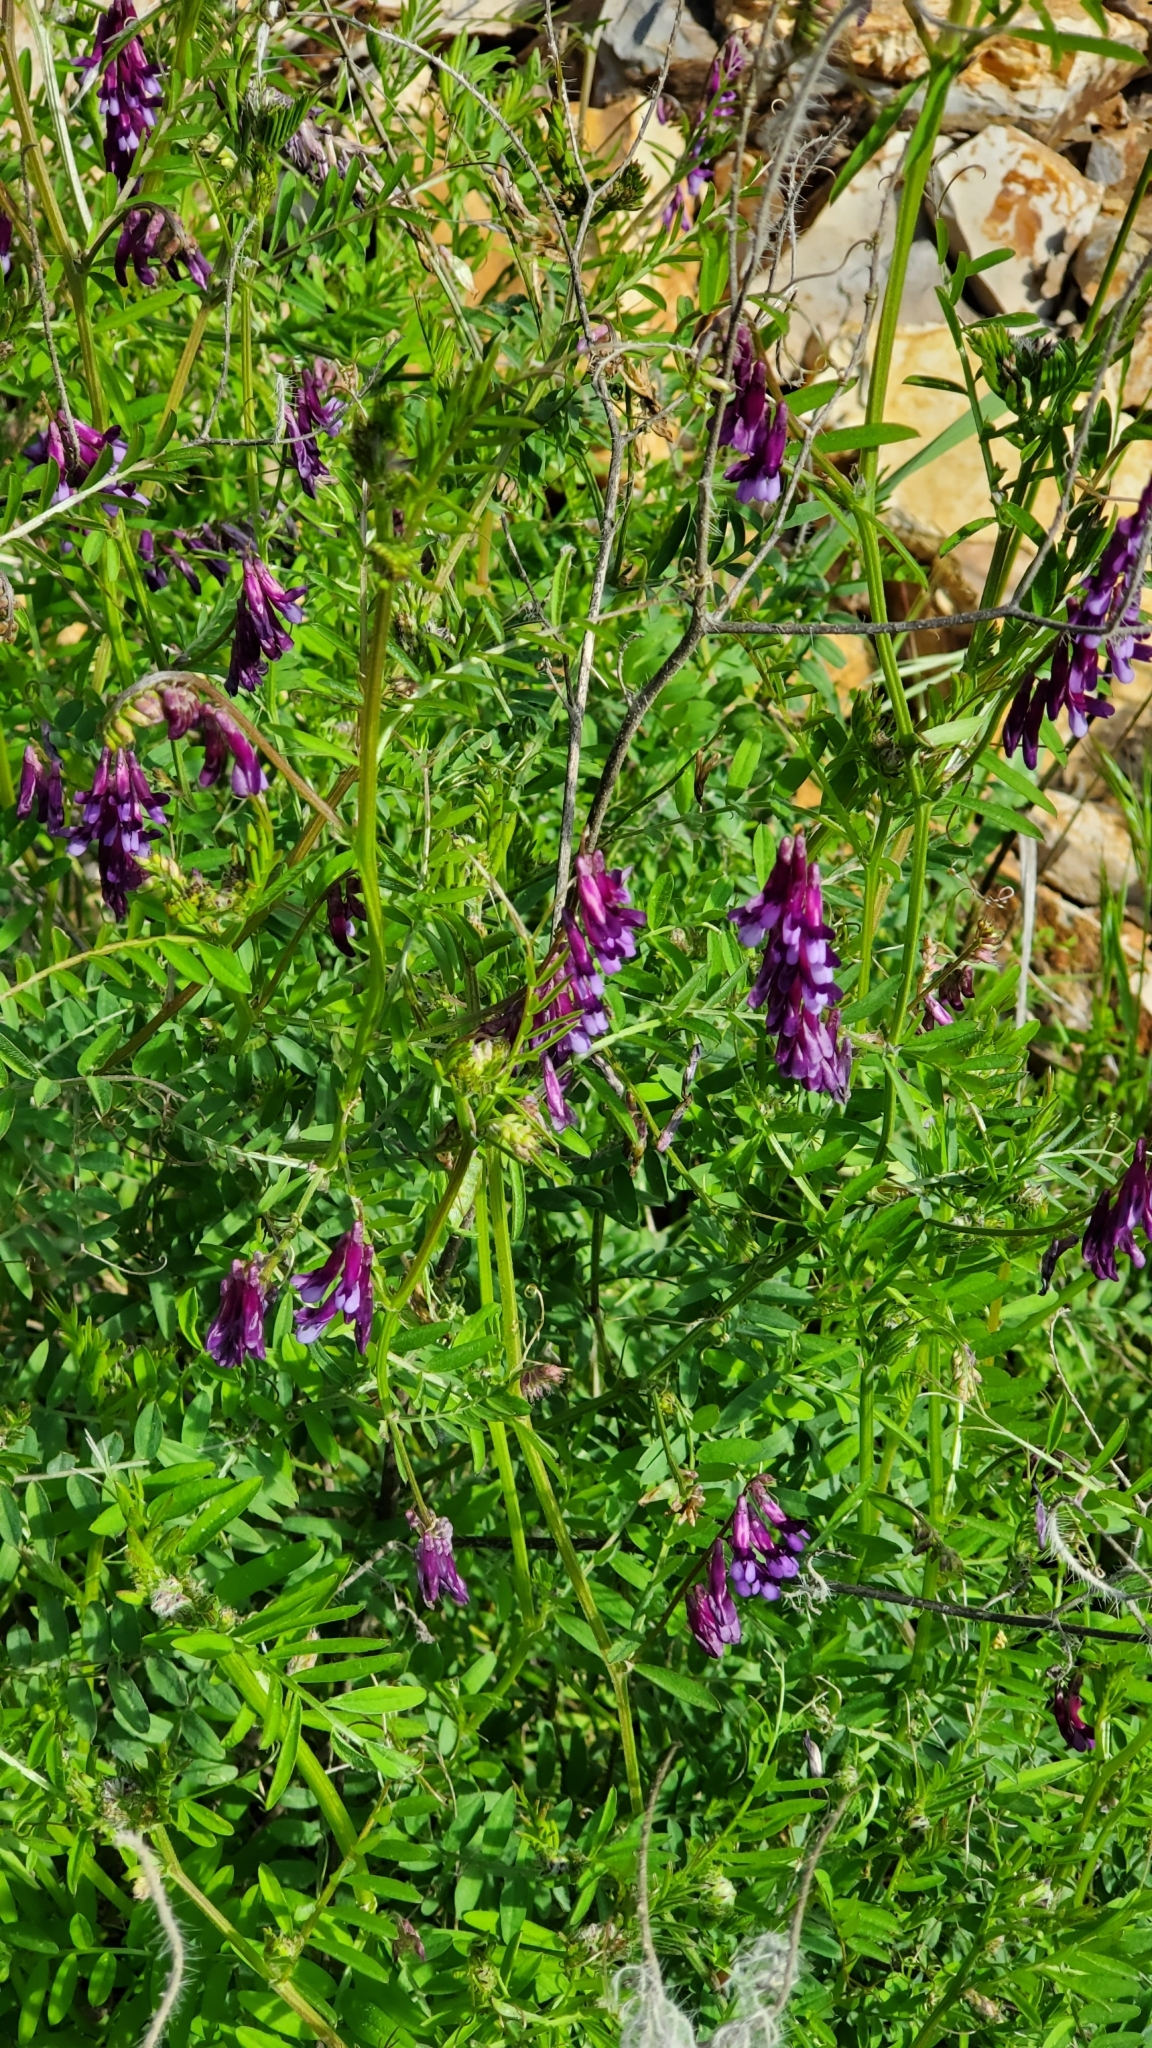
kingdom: Plantae
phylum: Tracheophyta
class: Magnoliopsida
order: Fabales
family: Fabaceae
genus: Vicia
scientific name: Vicia villosa
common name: Fodder vetch
